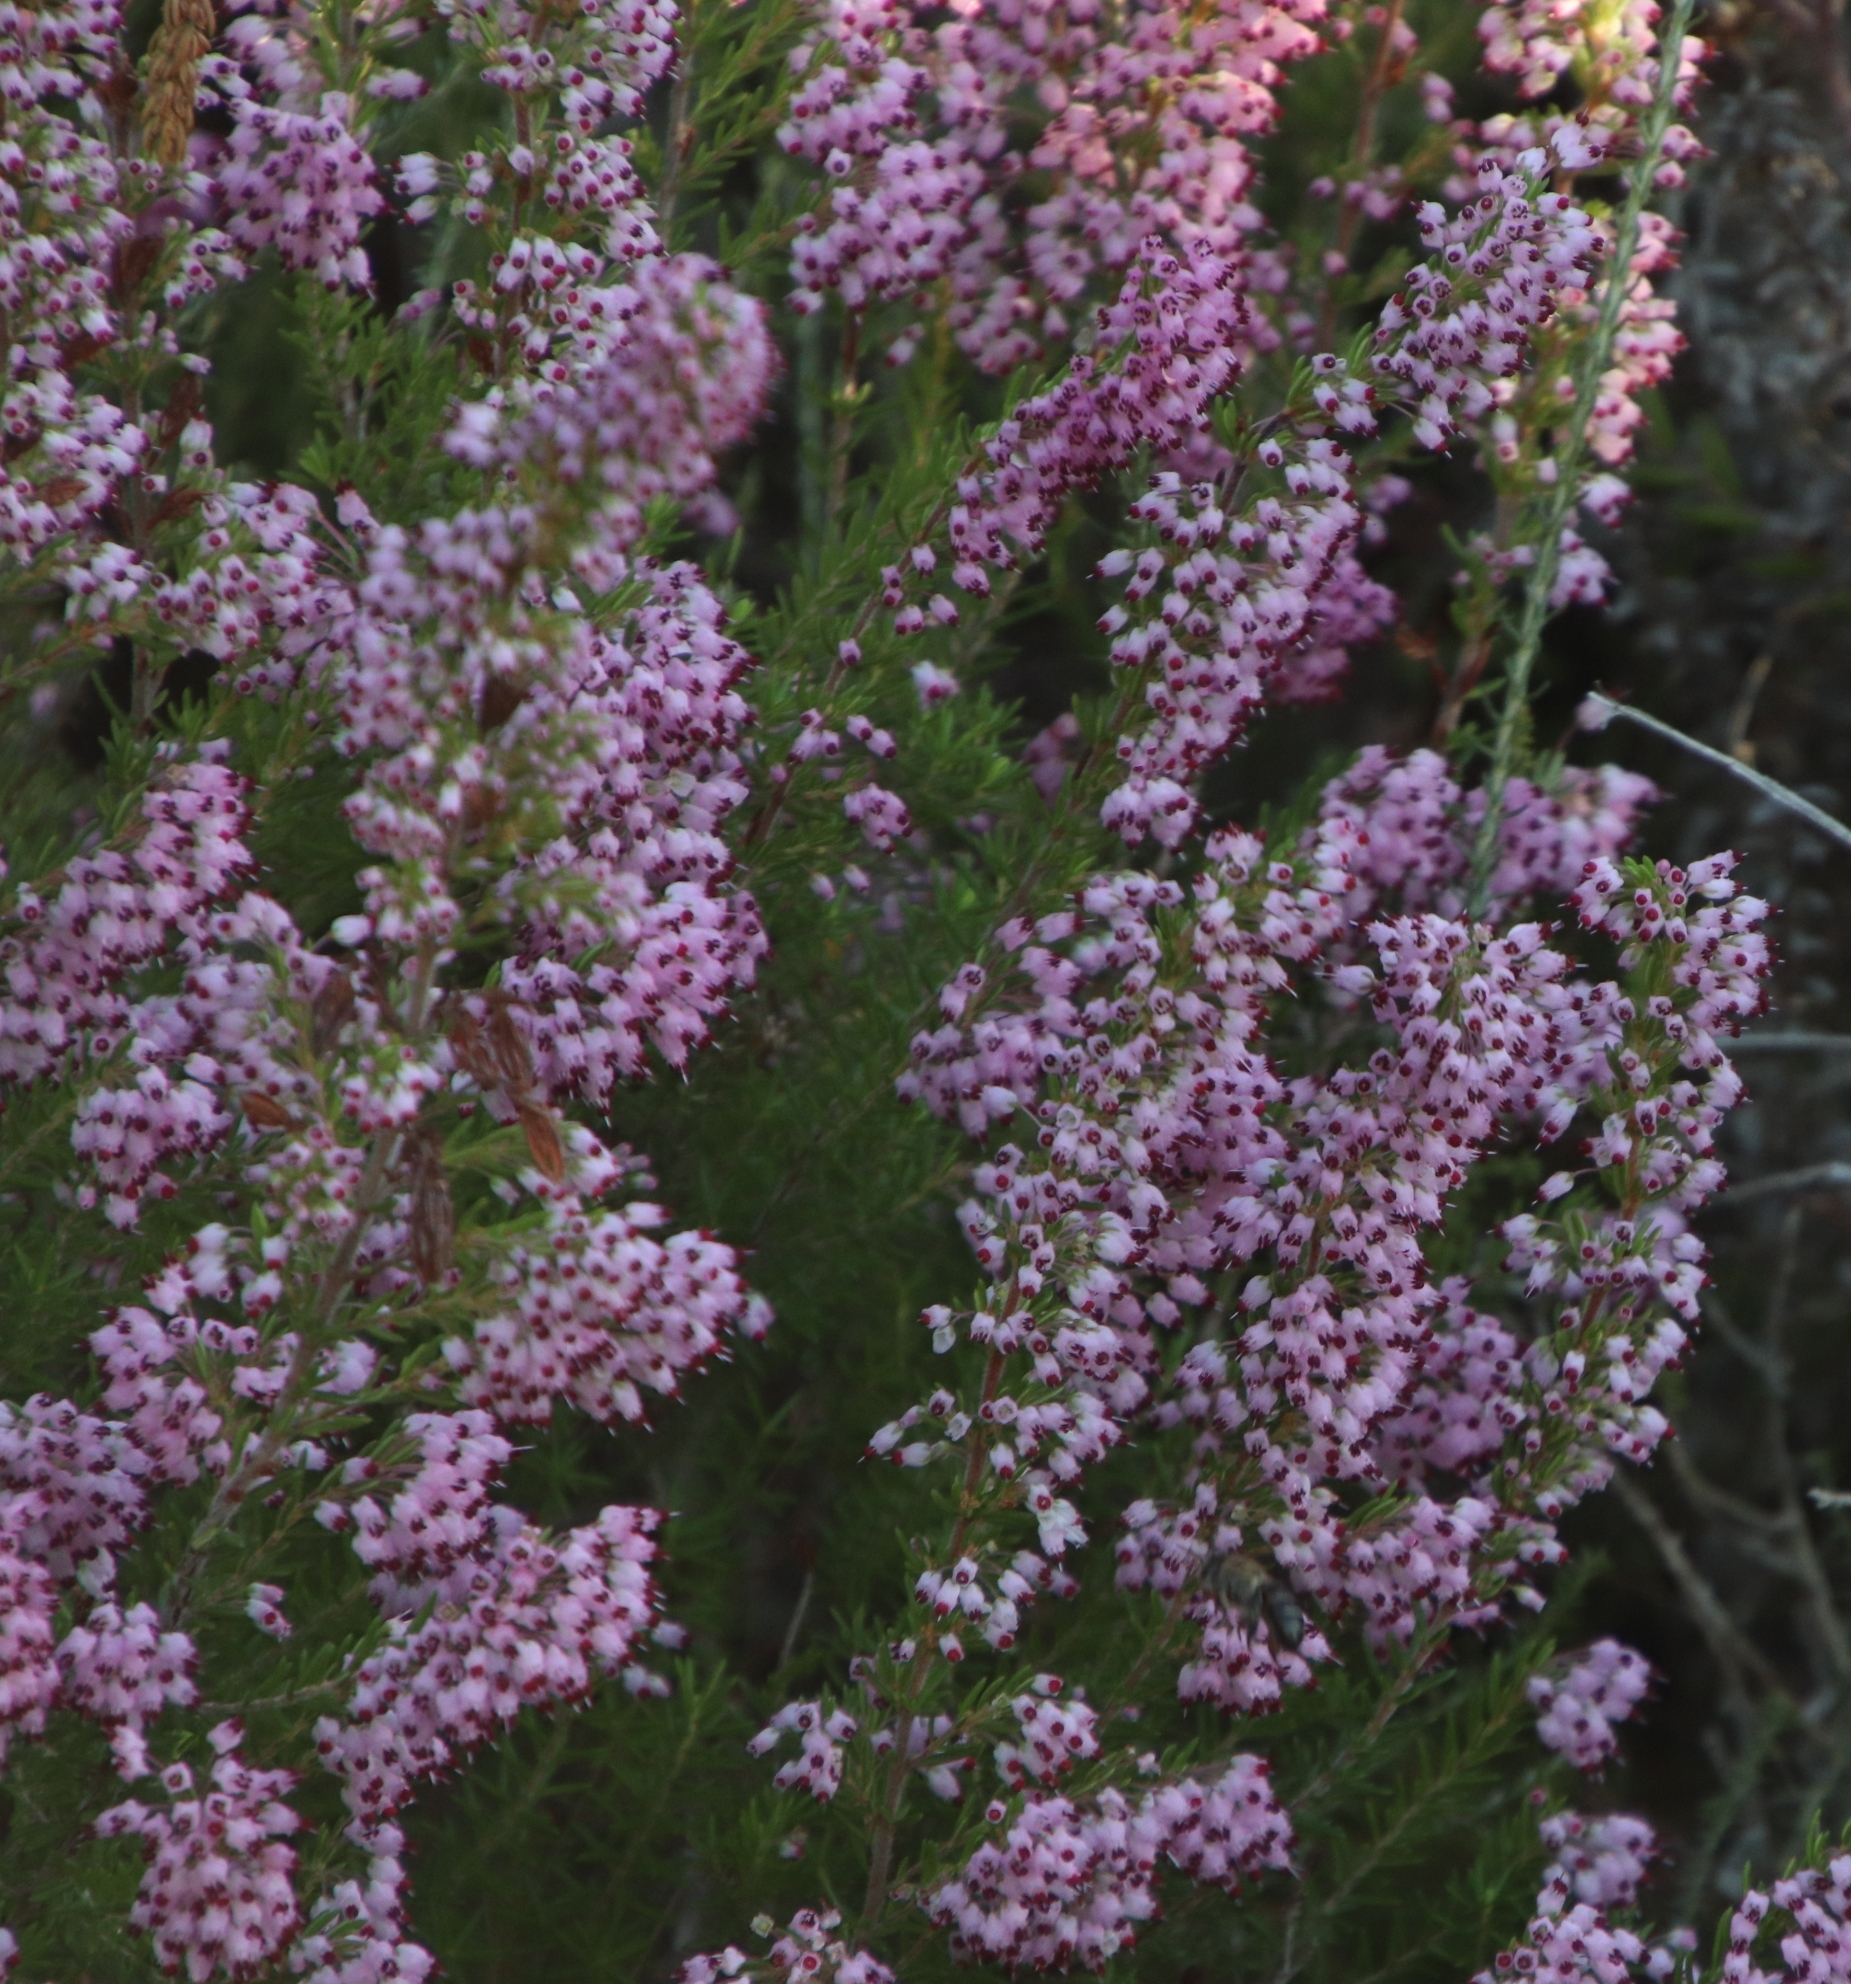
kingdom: Plantae
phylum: Tracheophyta
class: Magnoliopsida
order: Ericales
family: Ericaceae
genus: Erica
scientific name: Erica nudiflora
